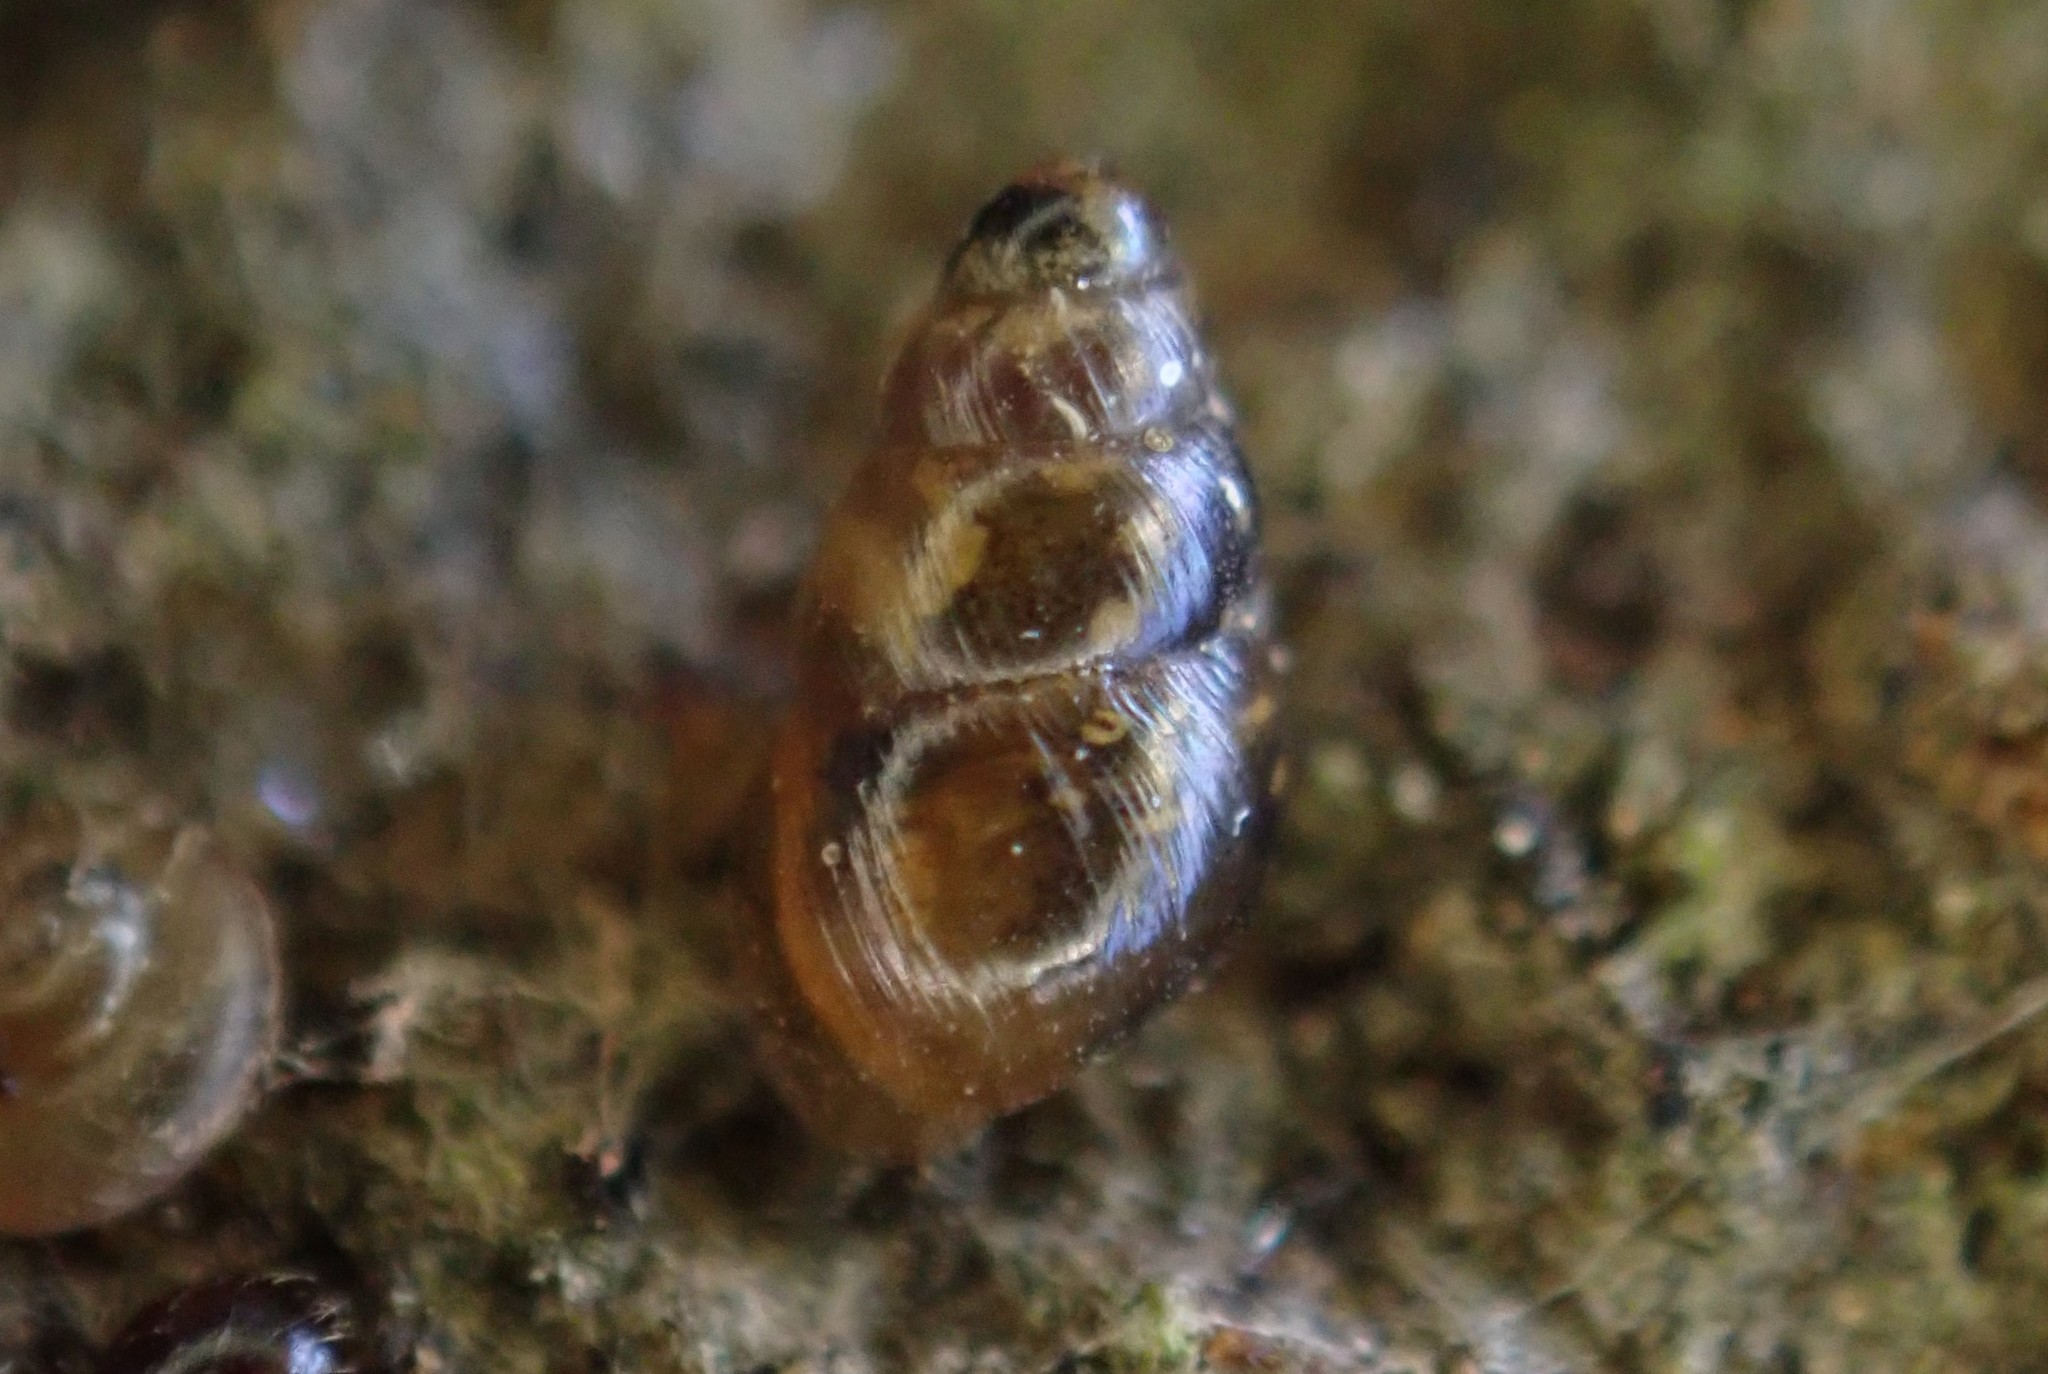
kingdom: Animalia
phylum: Mollusca
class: Gastropoda
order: Stylommatophora
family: Achatinellidae
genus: Tornatellinops
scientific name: Tornatellinops novoseelandicus
